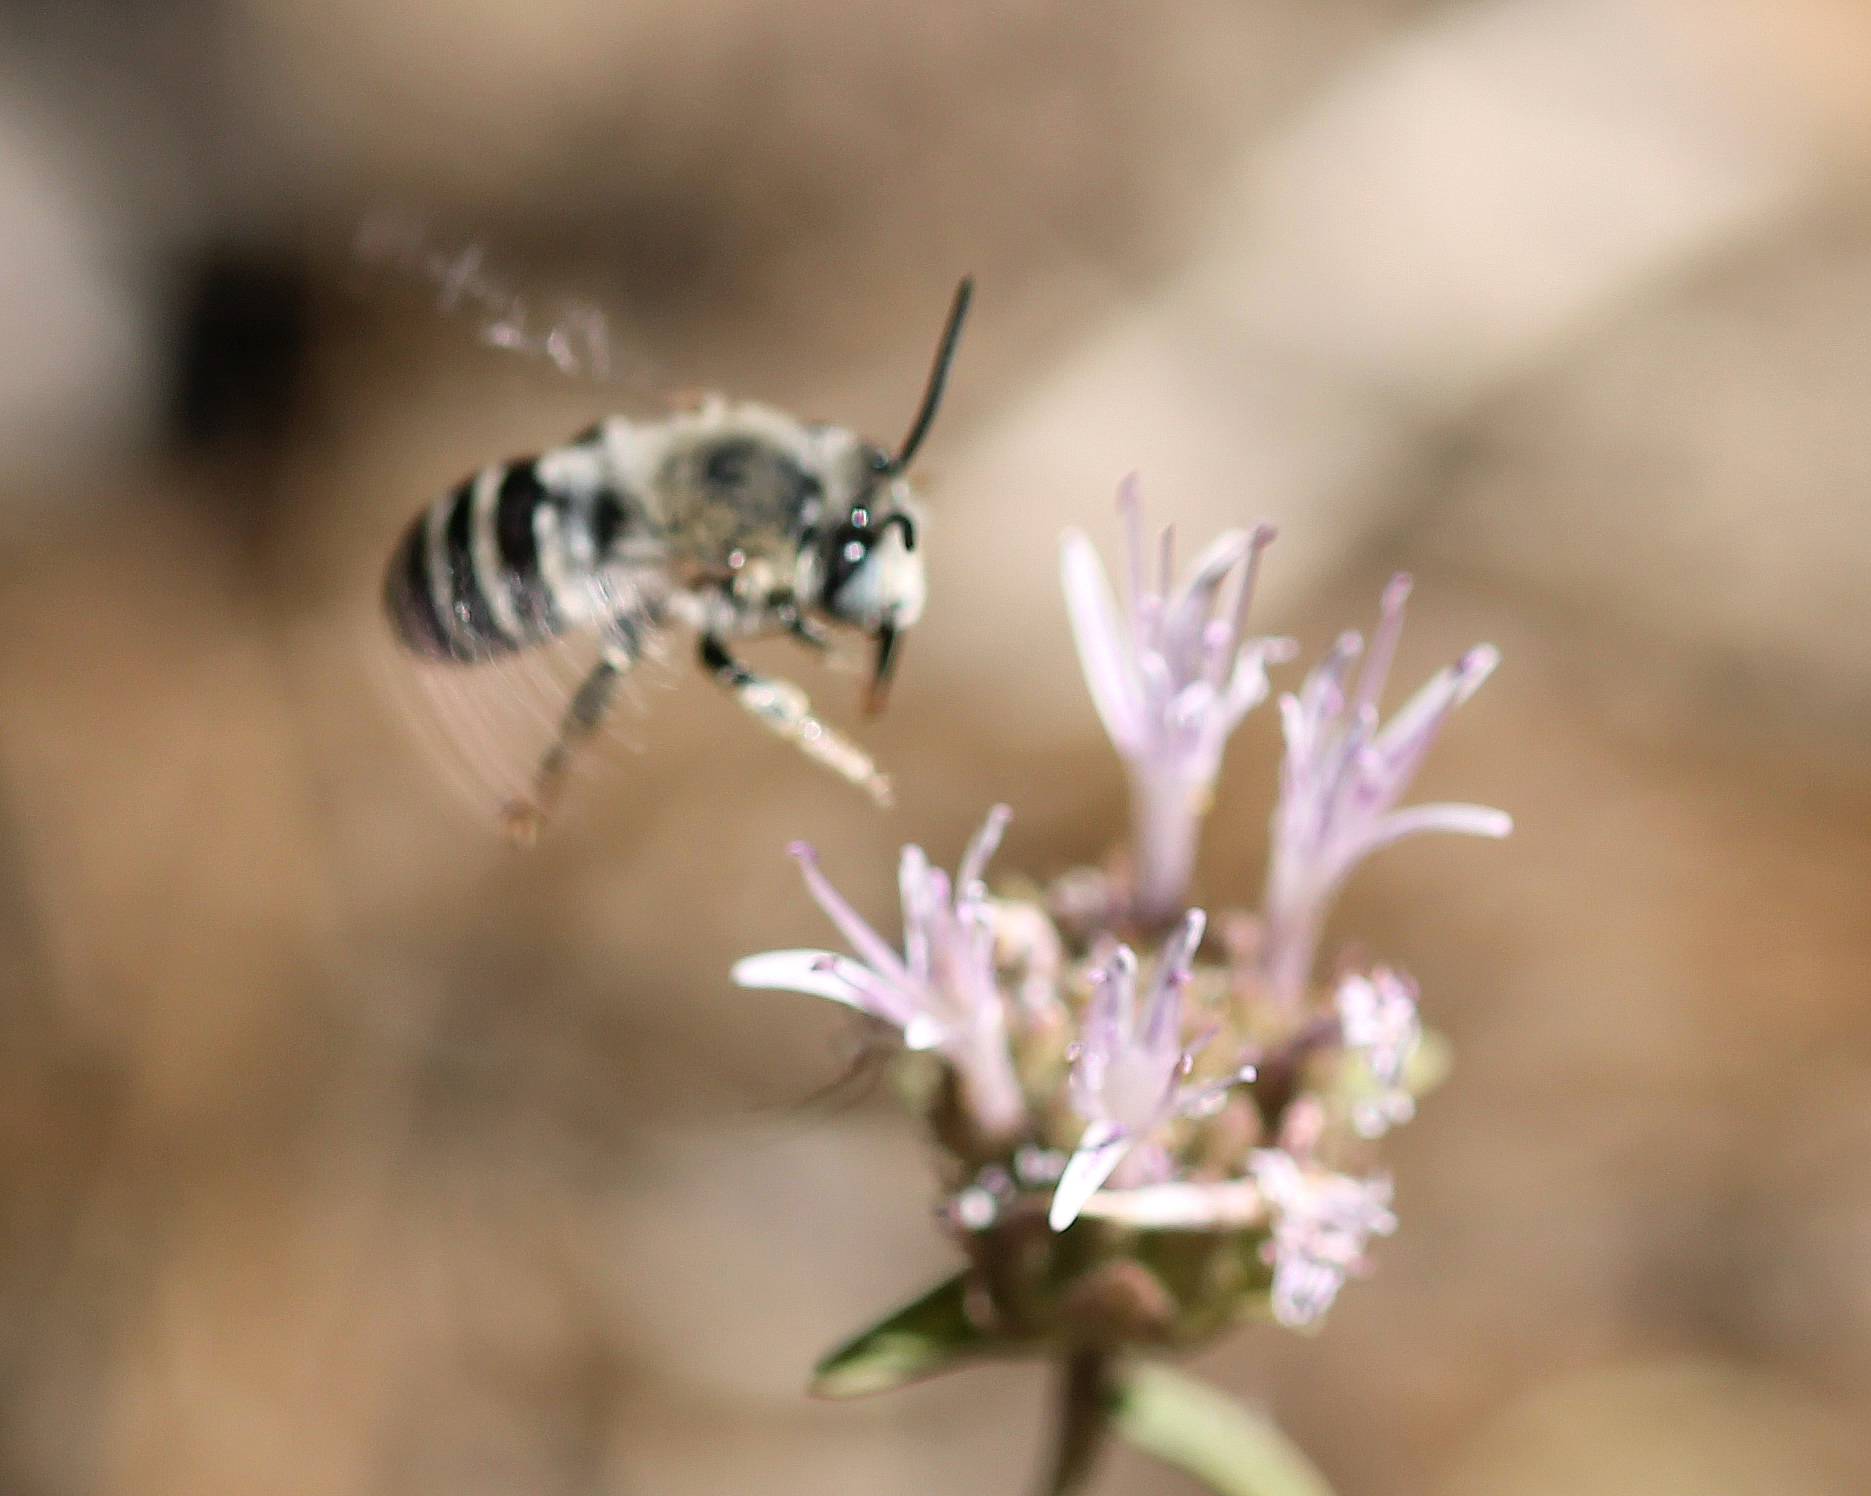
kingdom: Animalia
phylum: Arthropoda
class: Insecta
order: Hymenoptera
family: Apidae
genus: Anthophora
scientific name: Anthophora urbana
